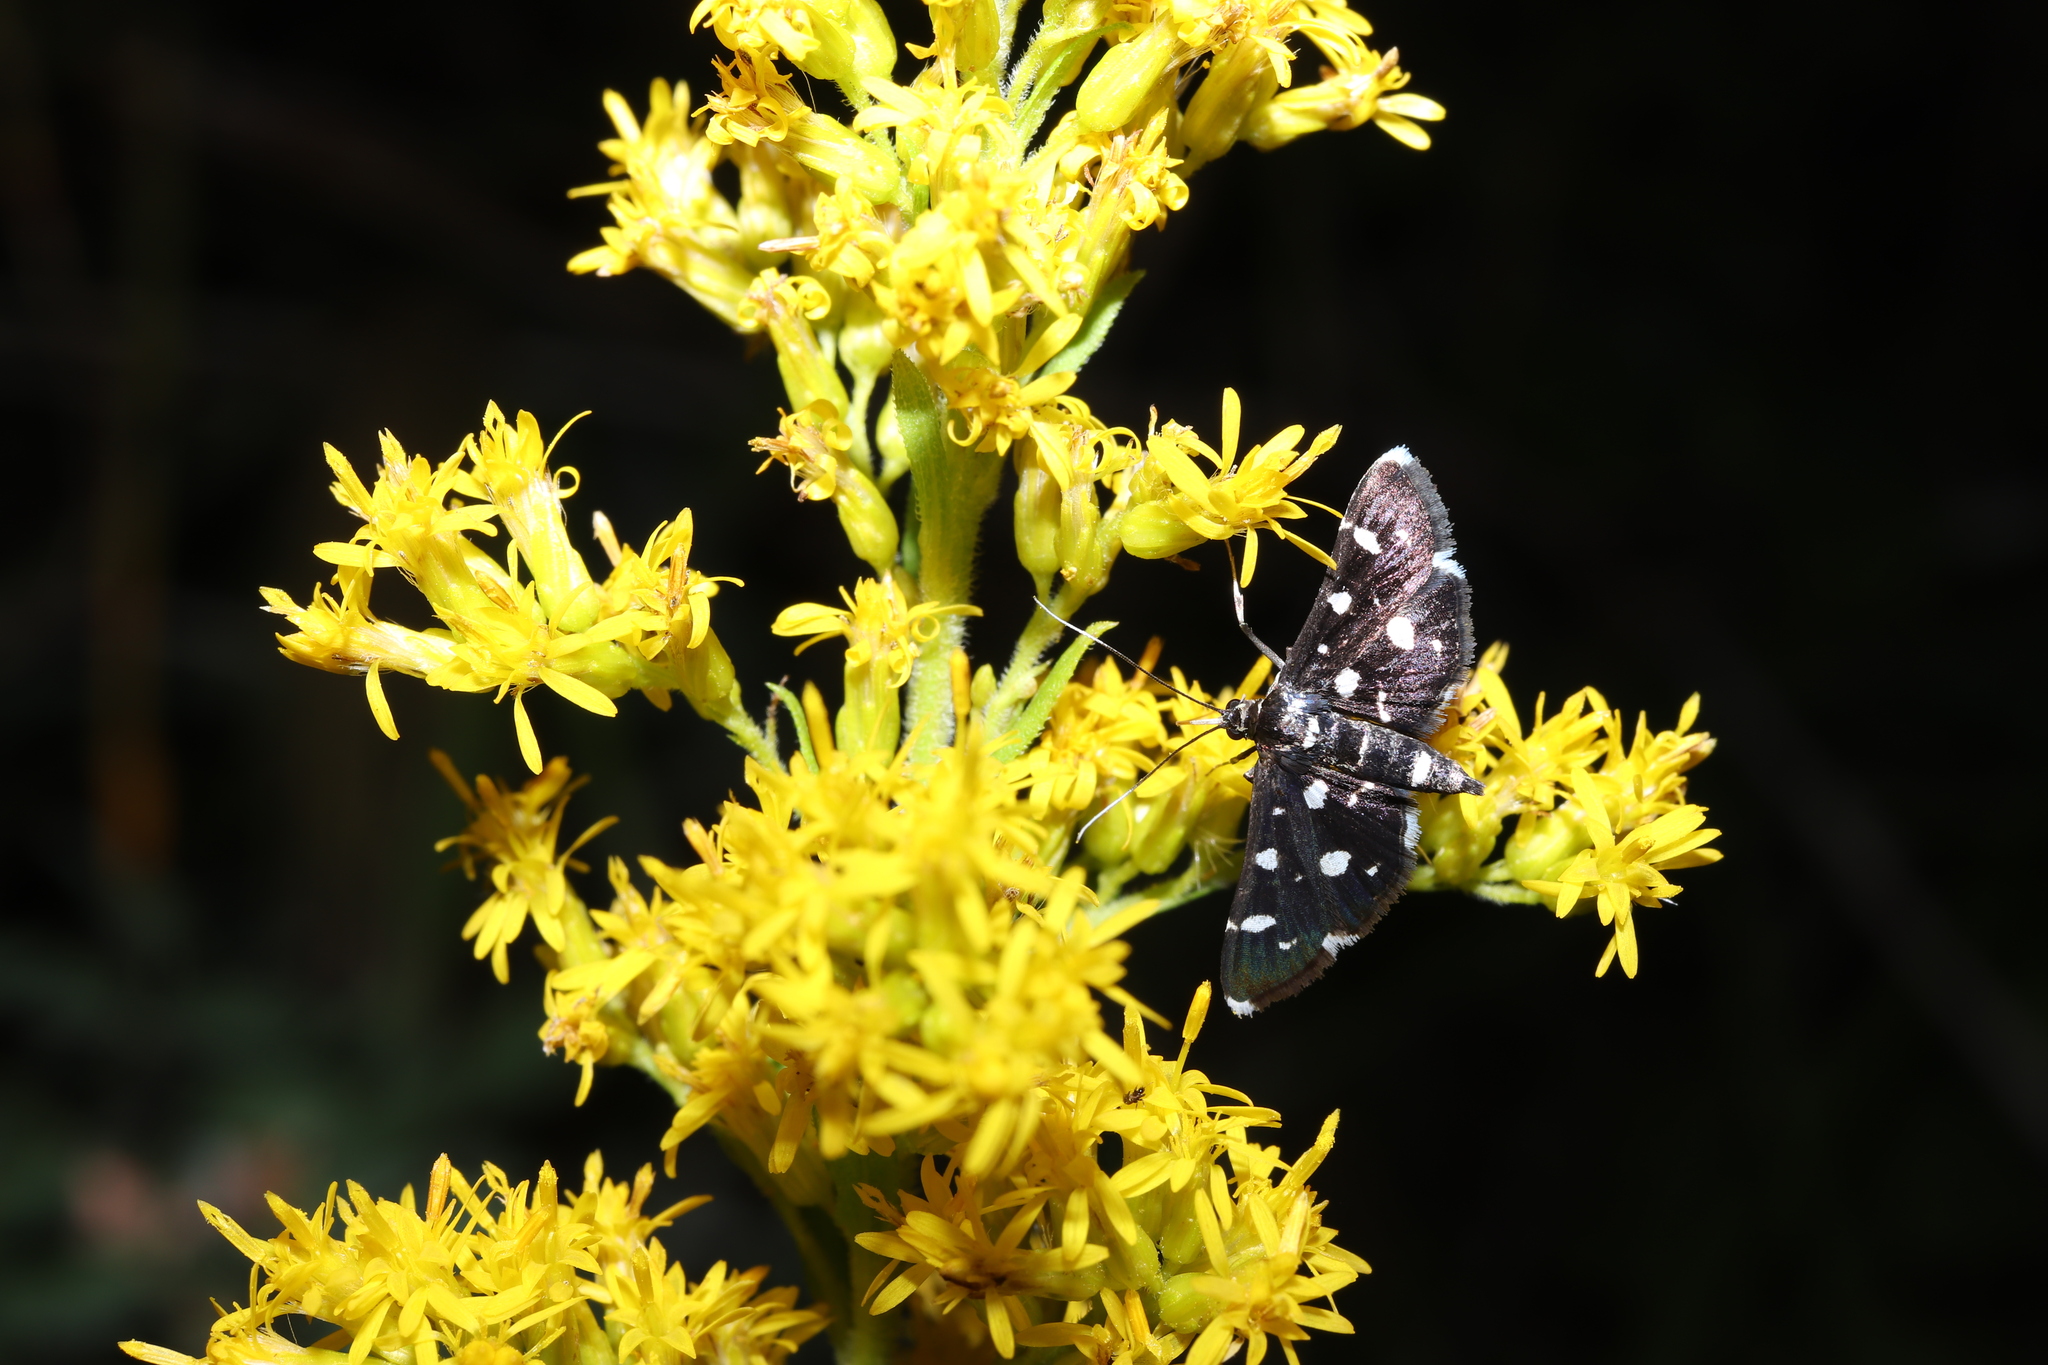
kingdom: Animalia
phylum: Arthropoda
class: Insecta
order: Lepidoptera
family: Crambidae
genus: Bocchoris
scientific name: Bocchoris inspersalis
